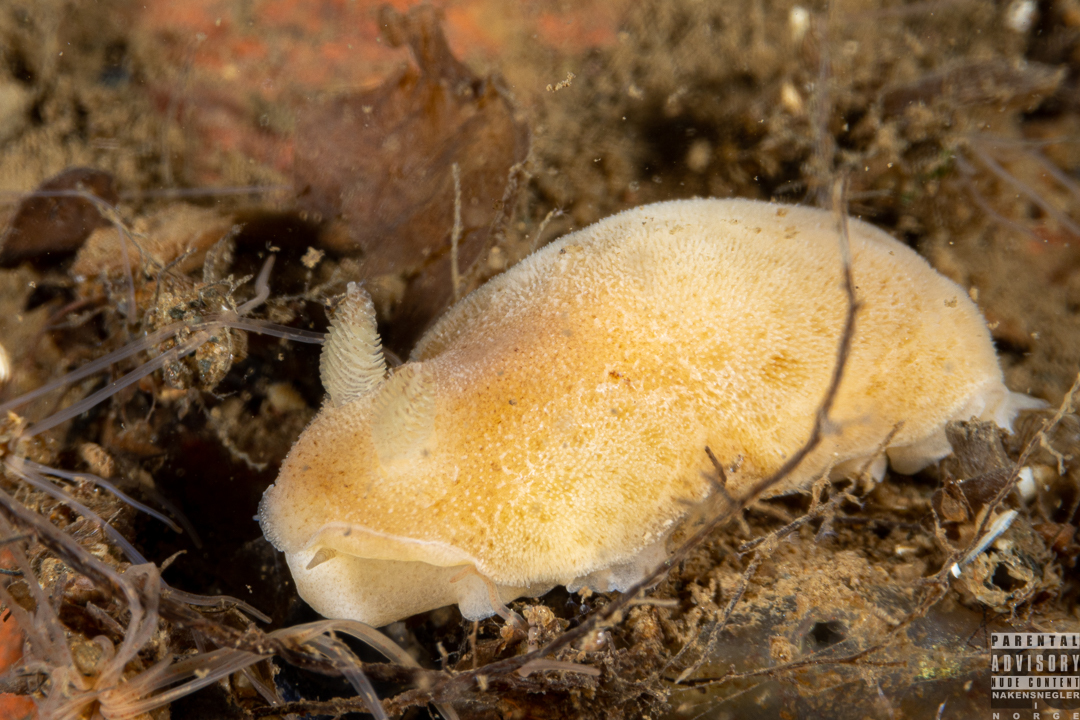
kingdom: Animalia
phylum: Mollusca
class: Gastropoda
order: Nudibranchia
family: Discodorididae
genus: Jorunna
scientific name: Jorunna tomentosa
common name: Grey sea slug
